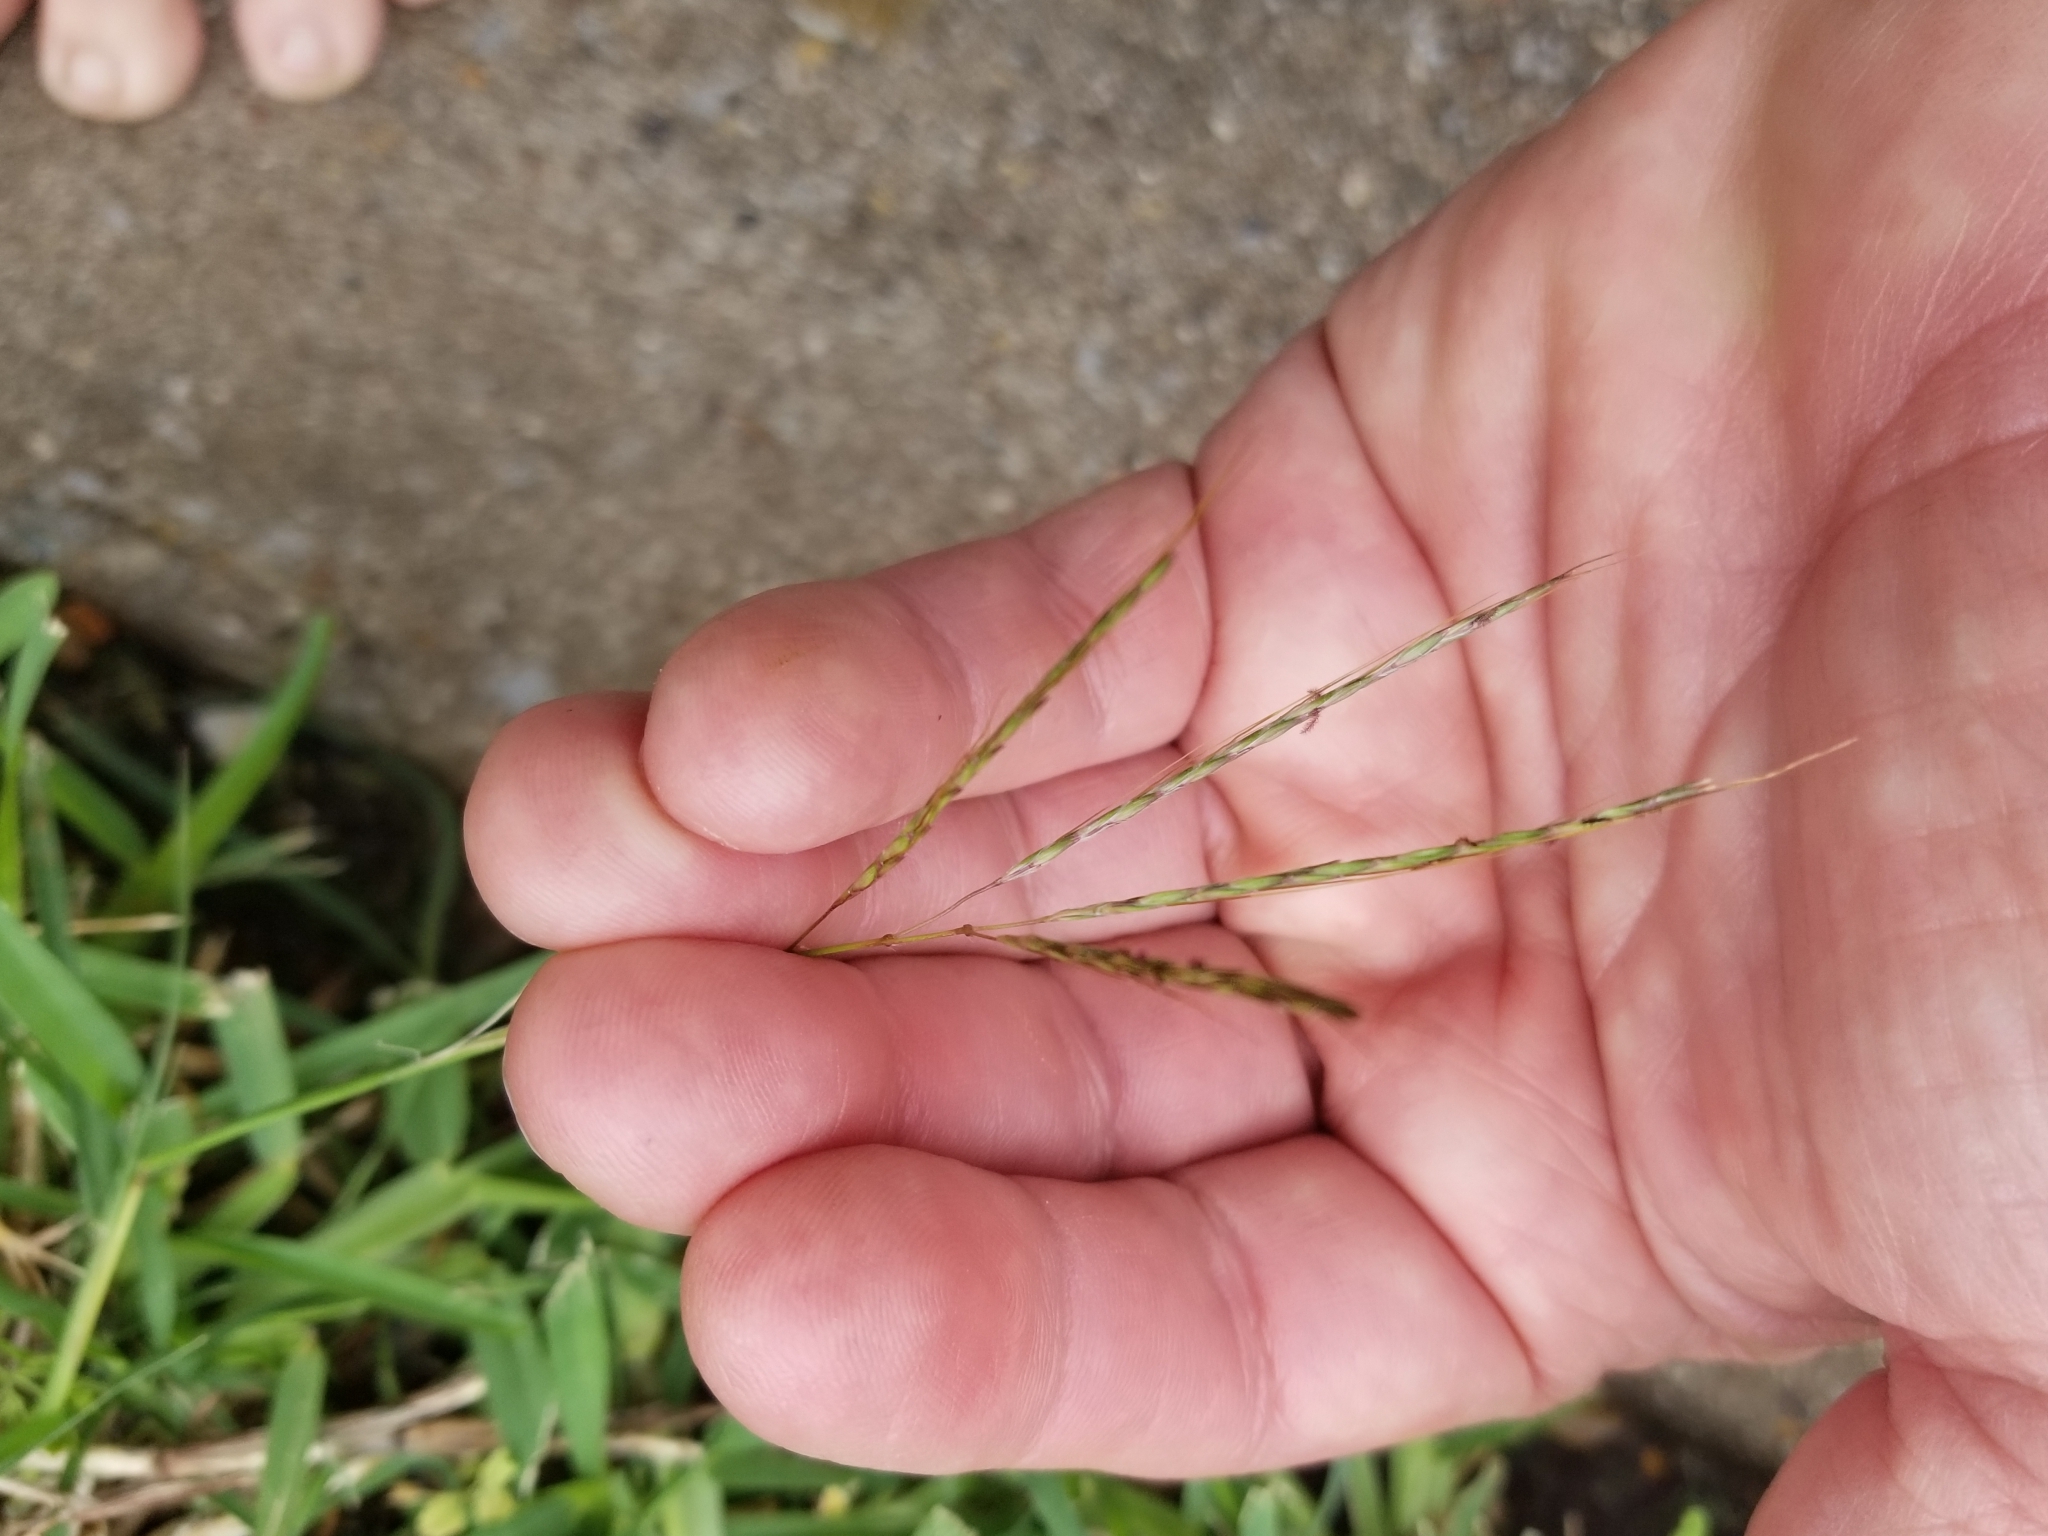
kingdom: Plantae
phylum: Tracheophyta
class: Liliopsida
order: Poales
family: Poaceae
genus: Bothriochloa
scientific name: Bothriochloa ischaemum
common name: Yellow bluestem
